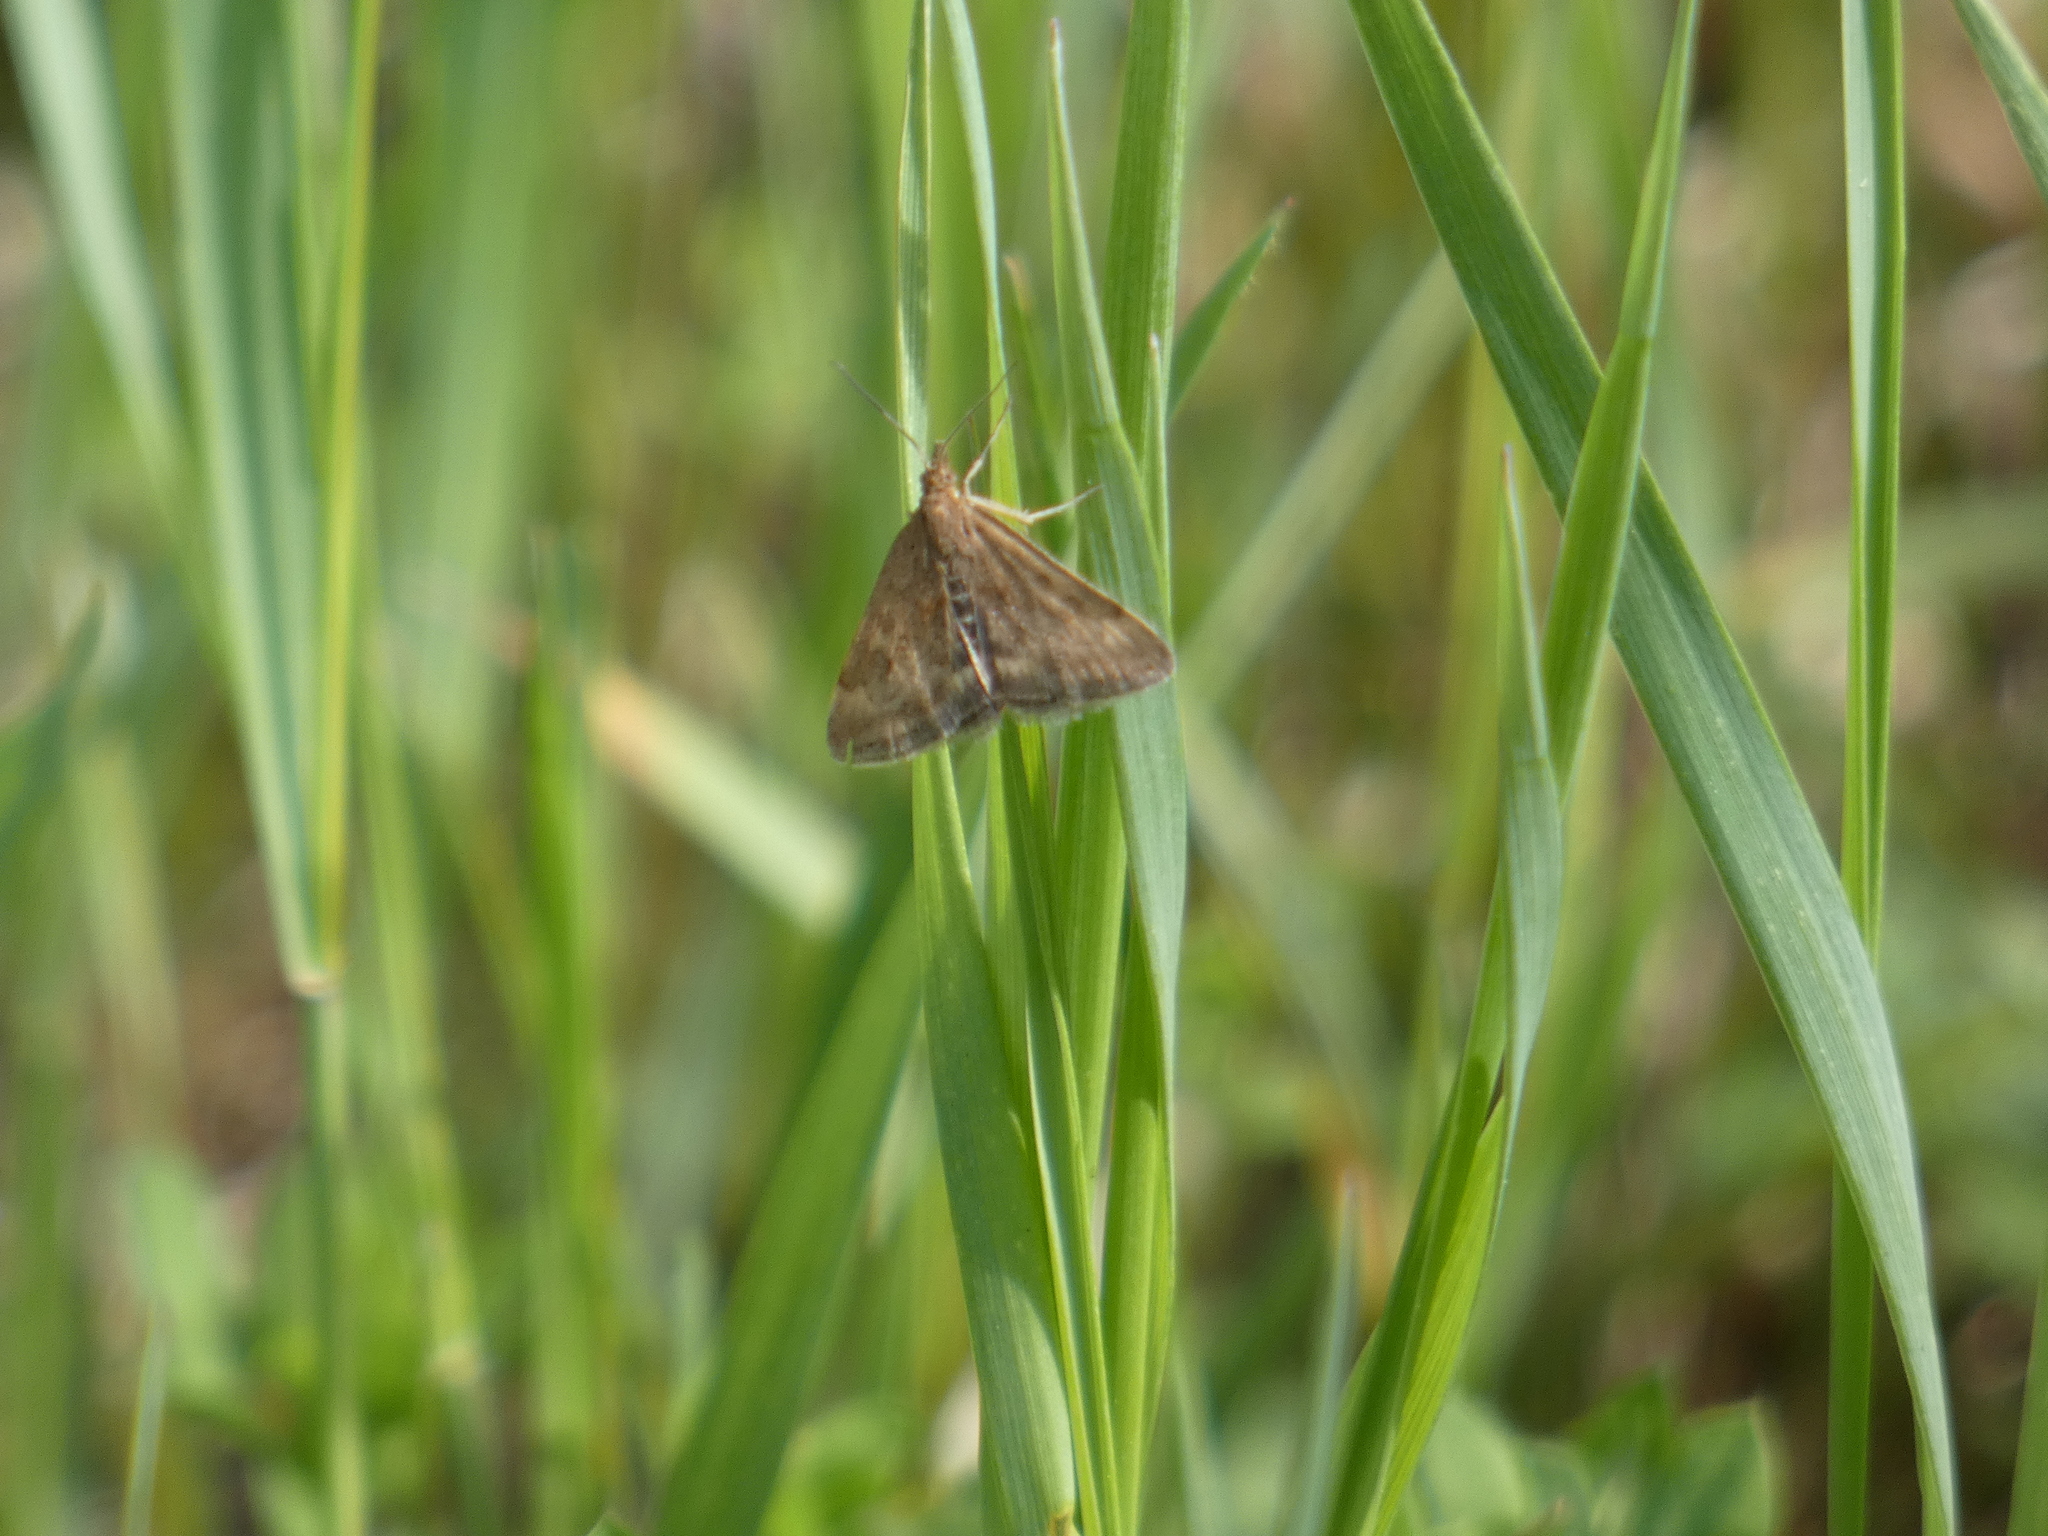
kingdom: Animalia
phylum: Arthropoda
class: Insecta
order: Lepidoptera
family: Crambidae
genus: Pyrausta
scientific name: Pyrausta despicata
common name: Straw-barred pearl
